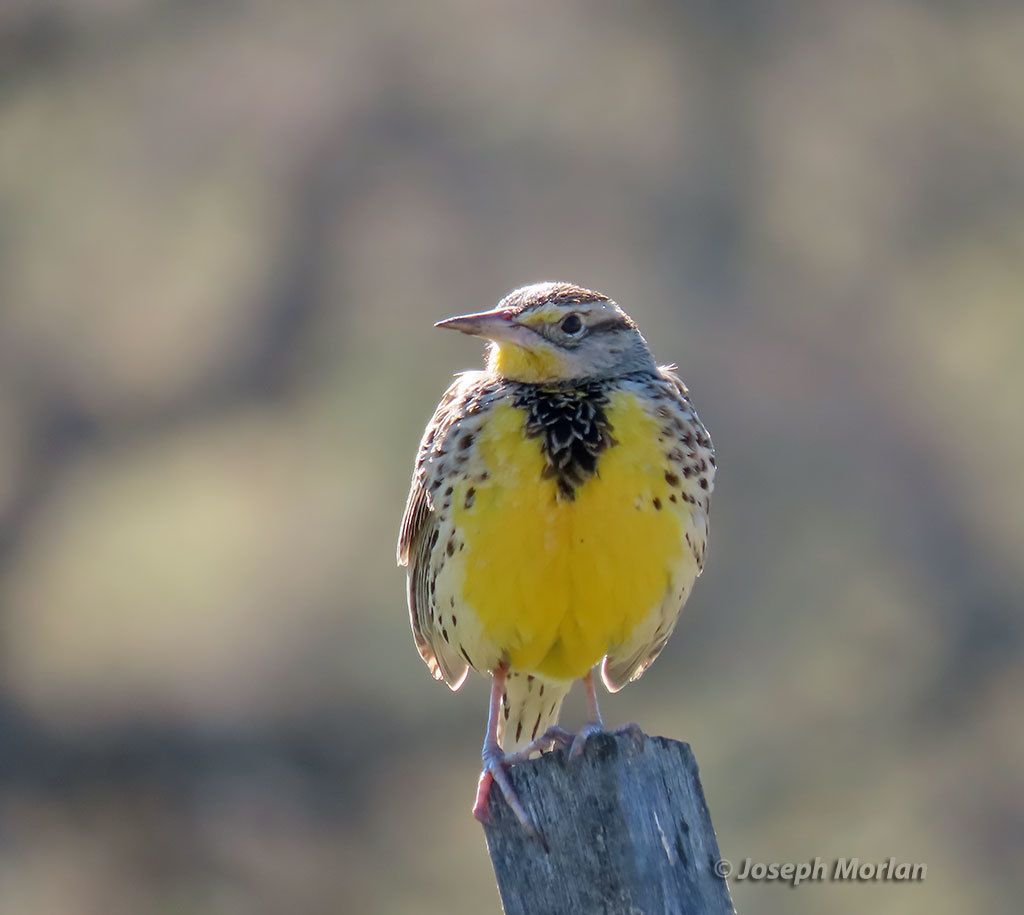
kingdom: Animalia
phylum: Chordata
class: Aves
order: Passeriformes
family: Icteridae
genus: Sturnella
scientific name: Sturnella neglecta
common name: Western meadowlark
